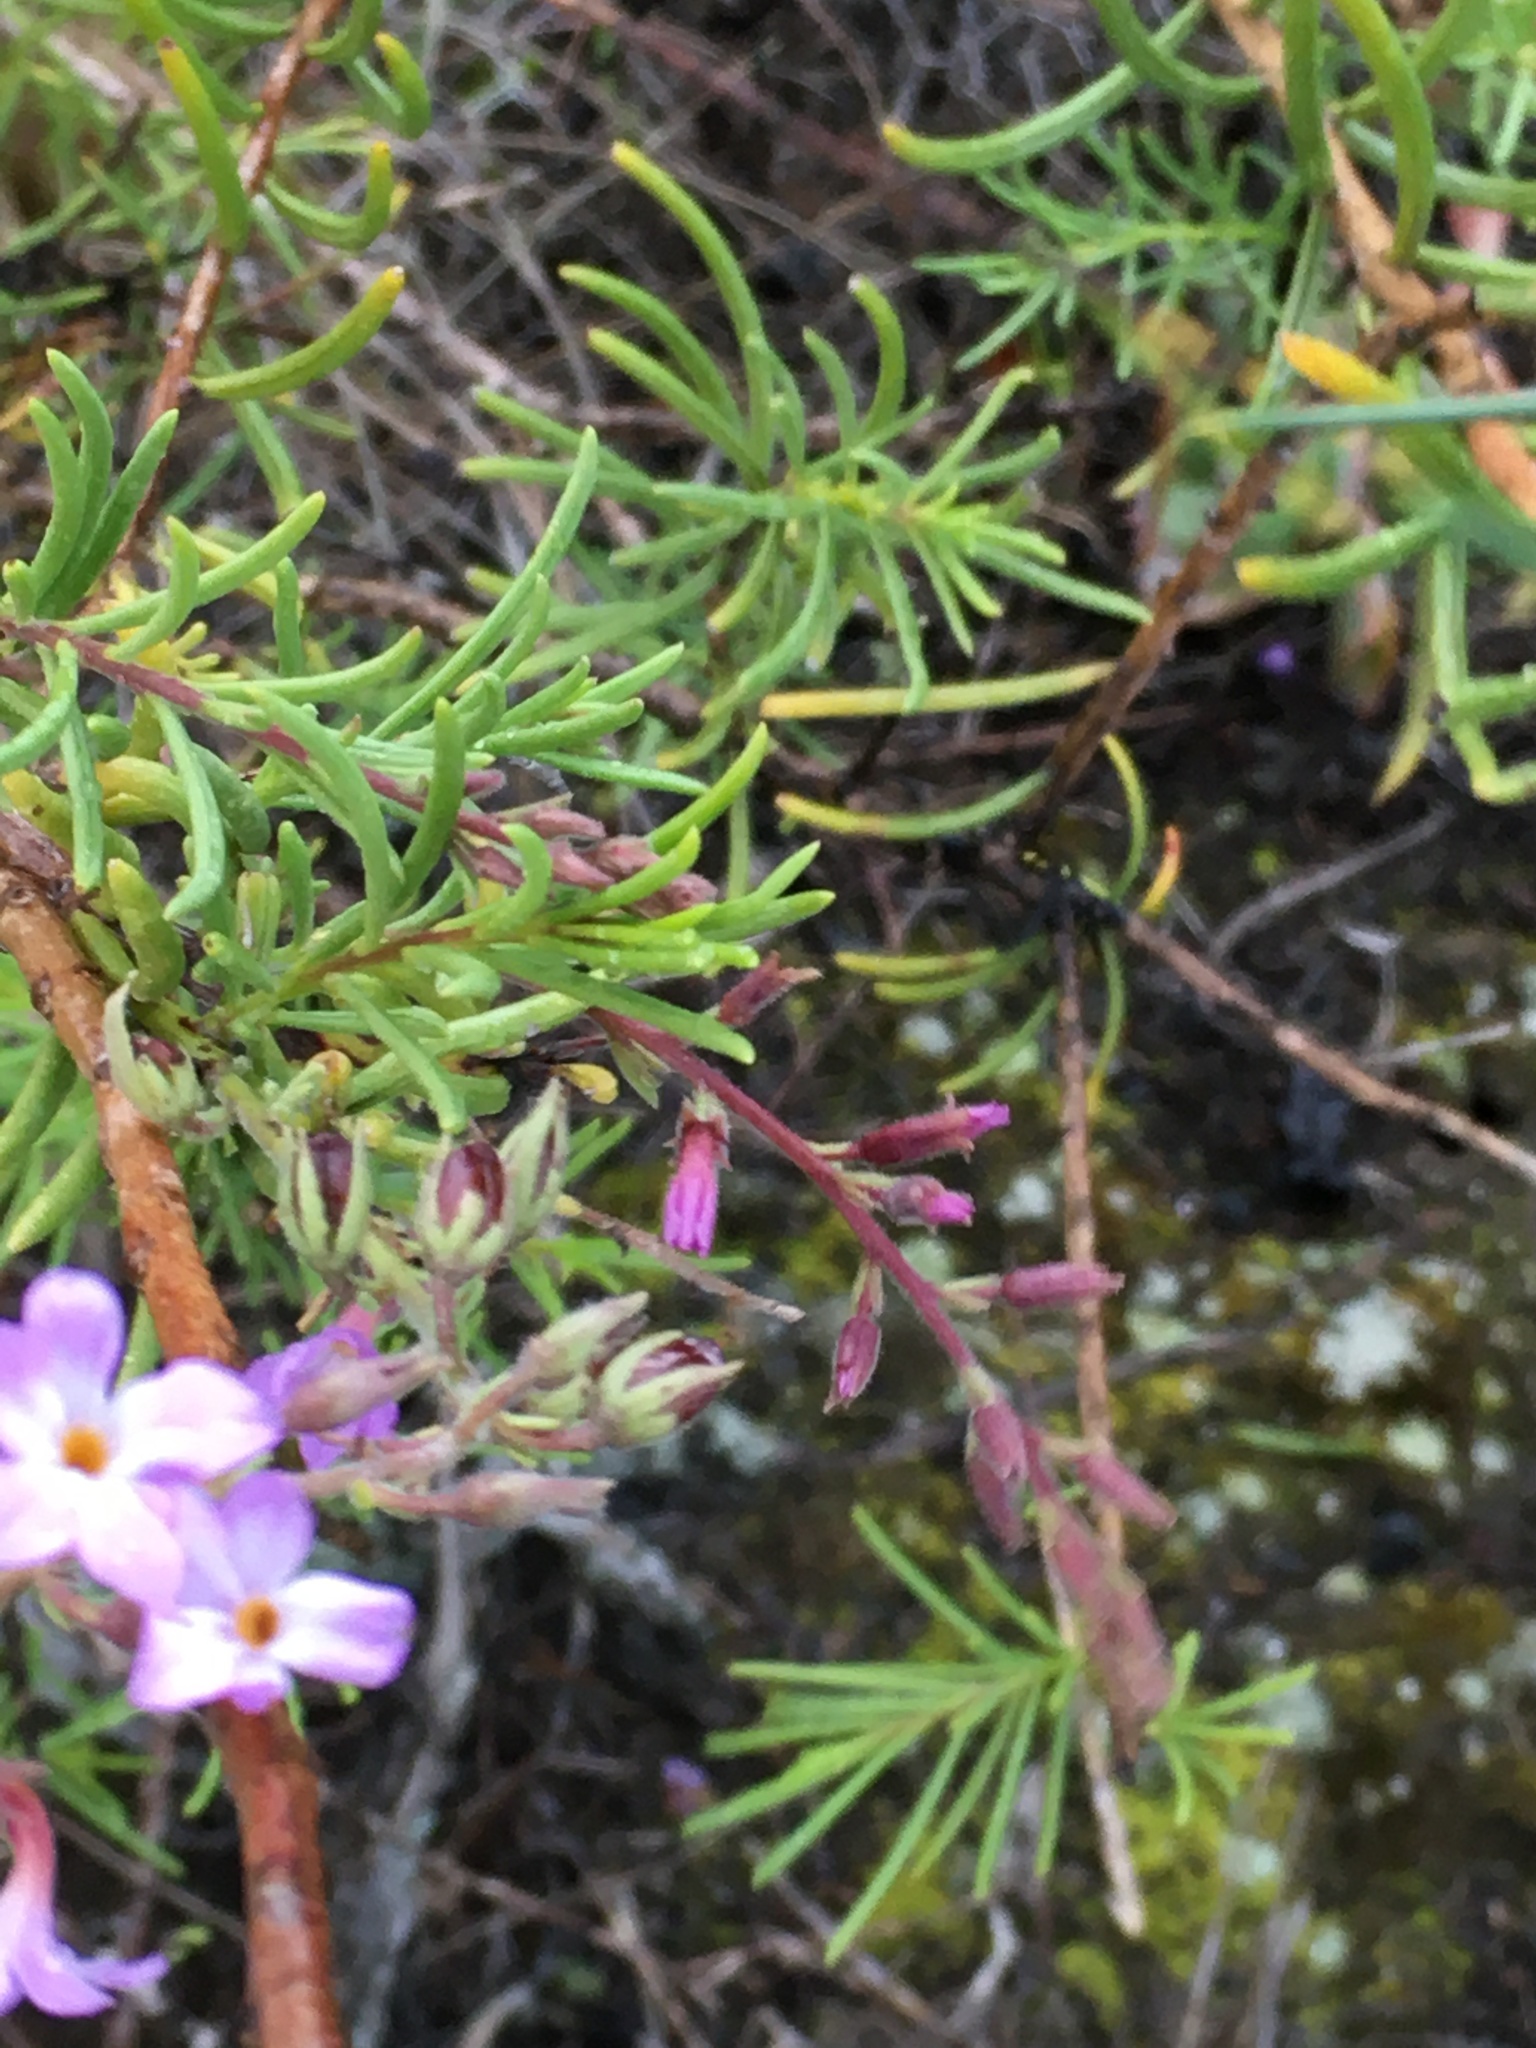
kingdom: Plantae
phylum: Tracheophyta
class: Magnoliopsida
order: Lamiales
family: Plantaginaceae
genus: Campylanthus
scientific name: Campylanthus salsoloides
